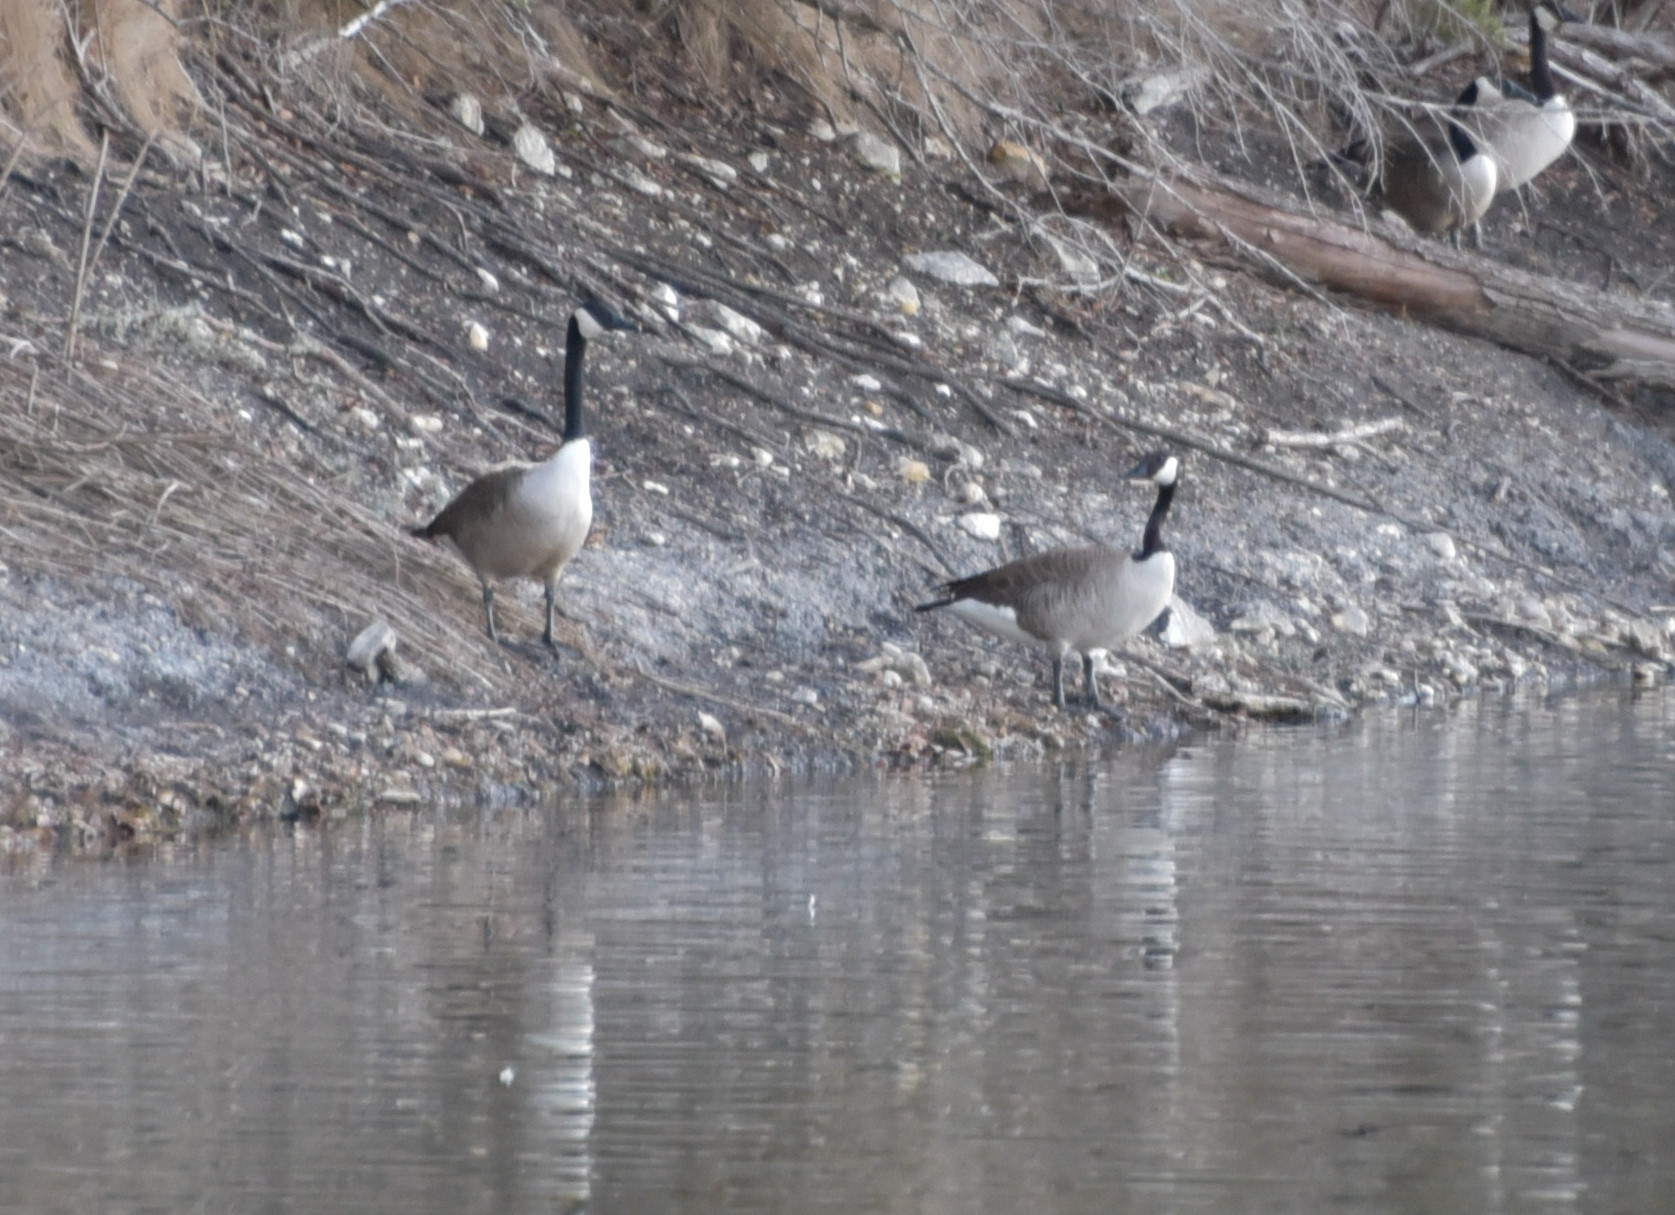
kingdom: Animalia
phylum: Chordata
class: Aves
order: Anseriformes
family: Anatidae
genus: Branta
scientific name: Branta canadensis
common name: Canada goose
